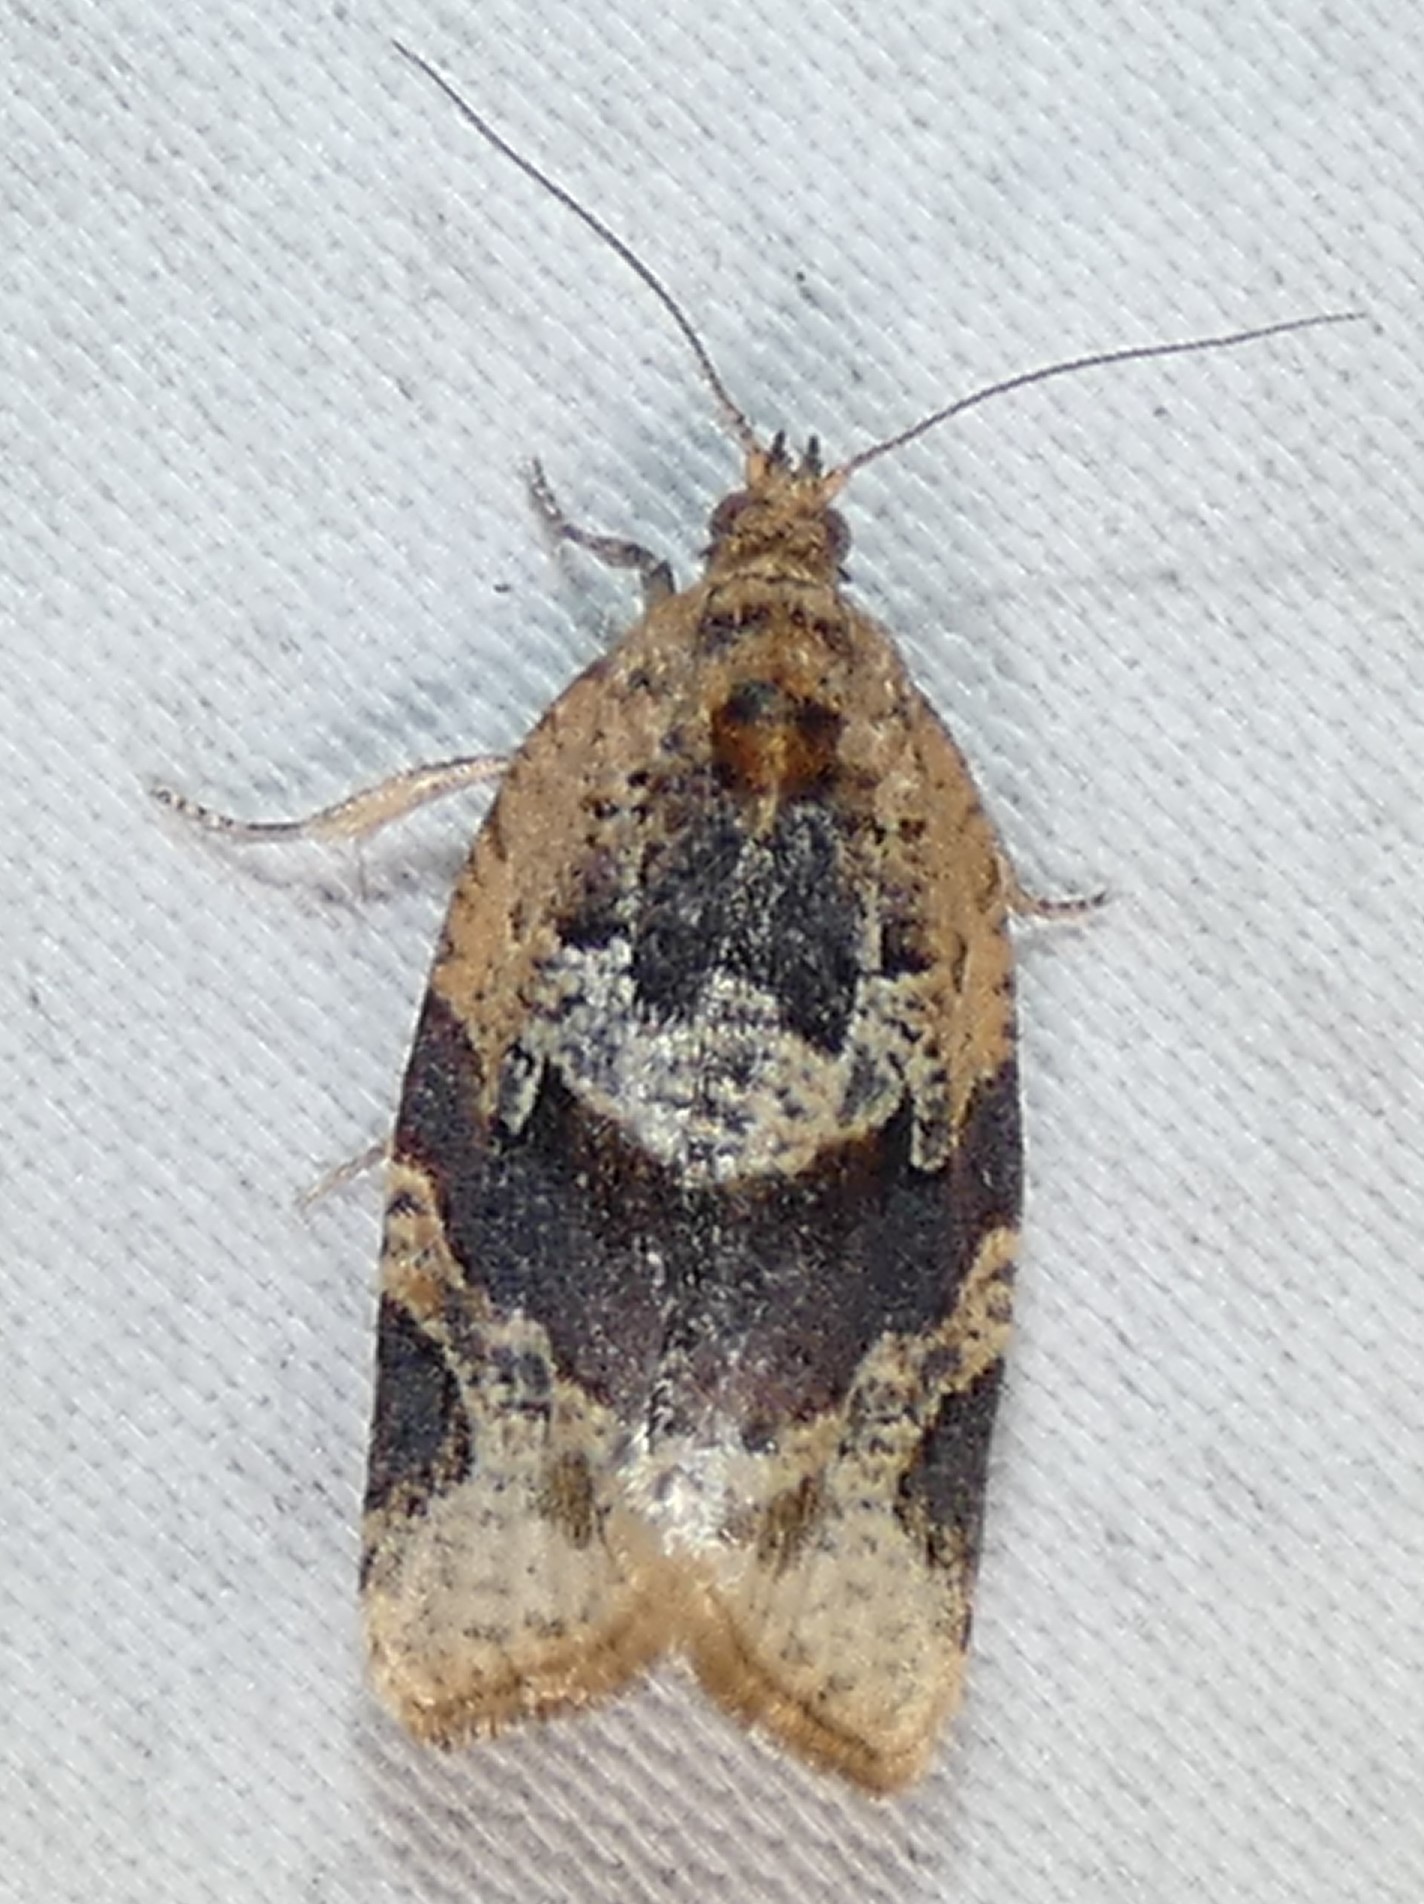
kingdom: Animalia
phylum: Arthropoda
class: Insecta
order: Lepidoptera
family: Tortricidae
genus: Argyrotaenia
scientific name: Argyrotaenia velutinana
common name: Red-banded leafroller moth
